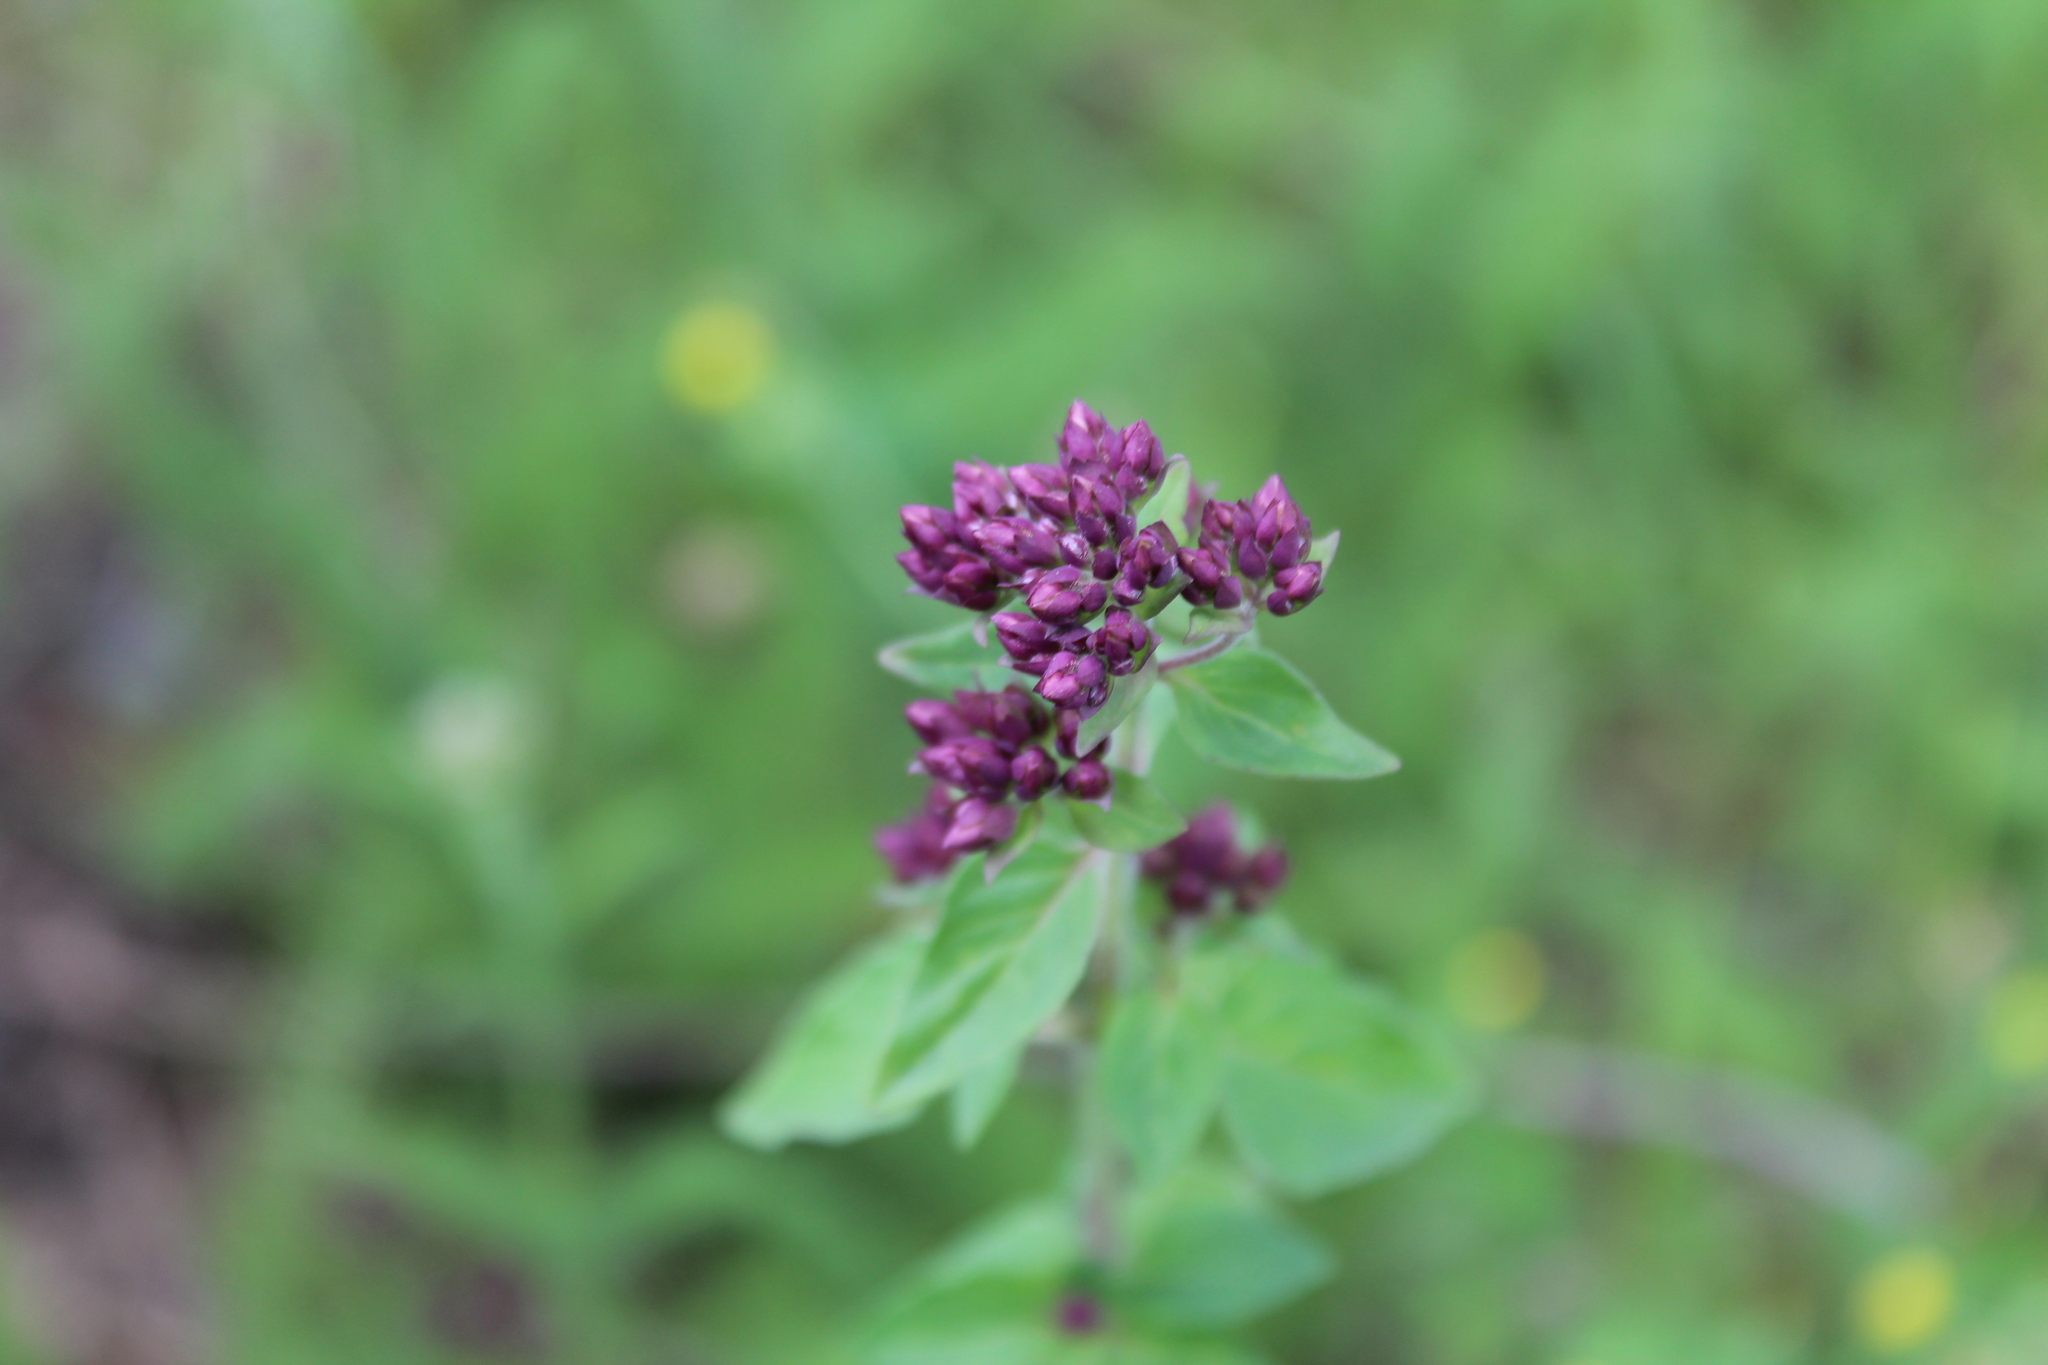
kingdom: Plantae
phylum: Tracheophyta
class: Magnoliopsida
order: Lamiales
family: Lamiaceae
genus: Origanum
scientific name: Origanum vulgare
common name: Wild marjoram
